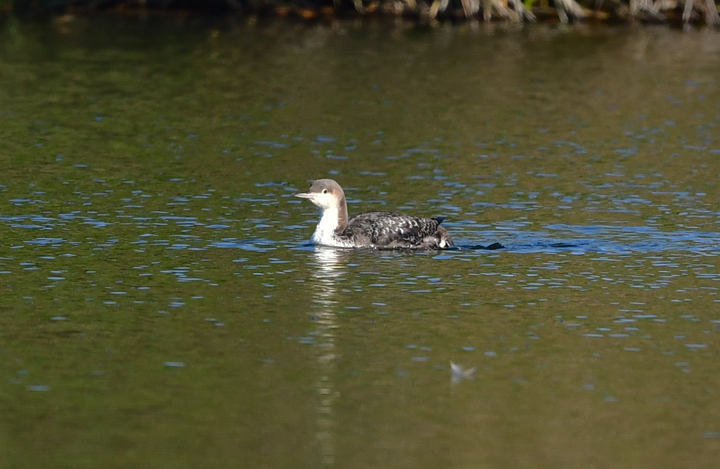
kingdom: Animalia
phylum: Chordata
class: Aves
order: Gaviiformes
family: Gaviidae
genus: Gavia
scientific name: Gavia pacifica
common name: Pacific loon
